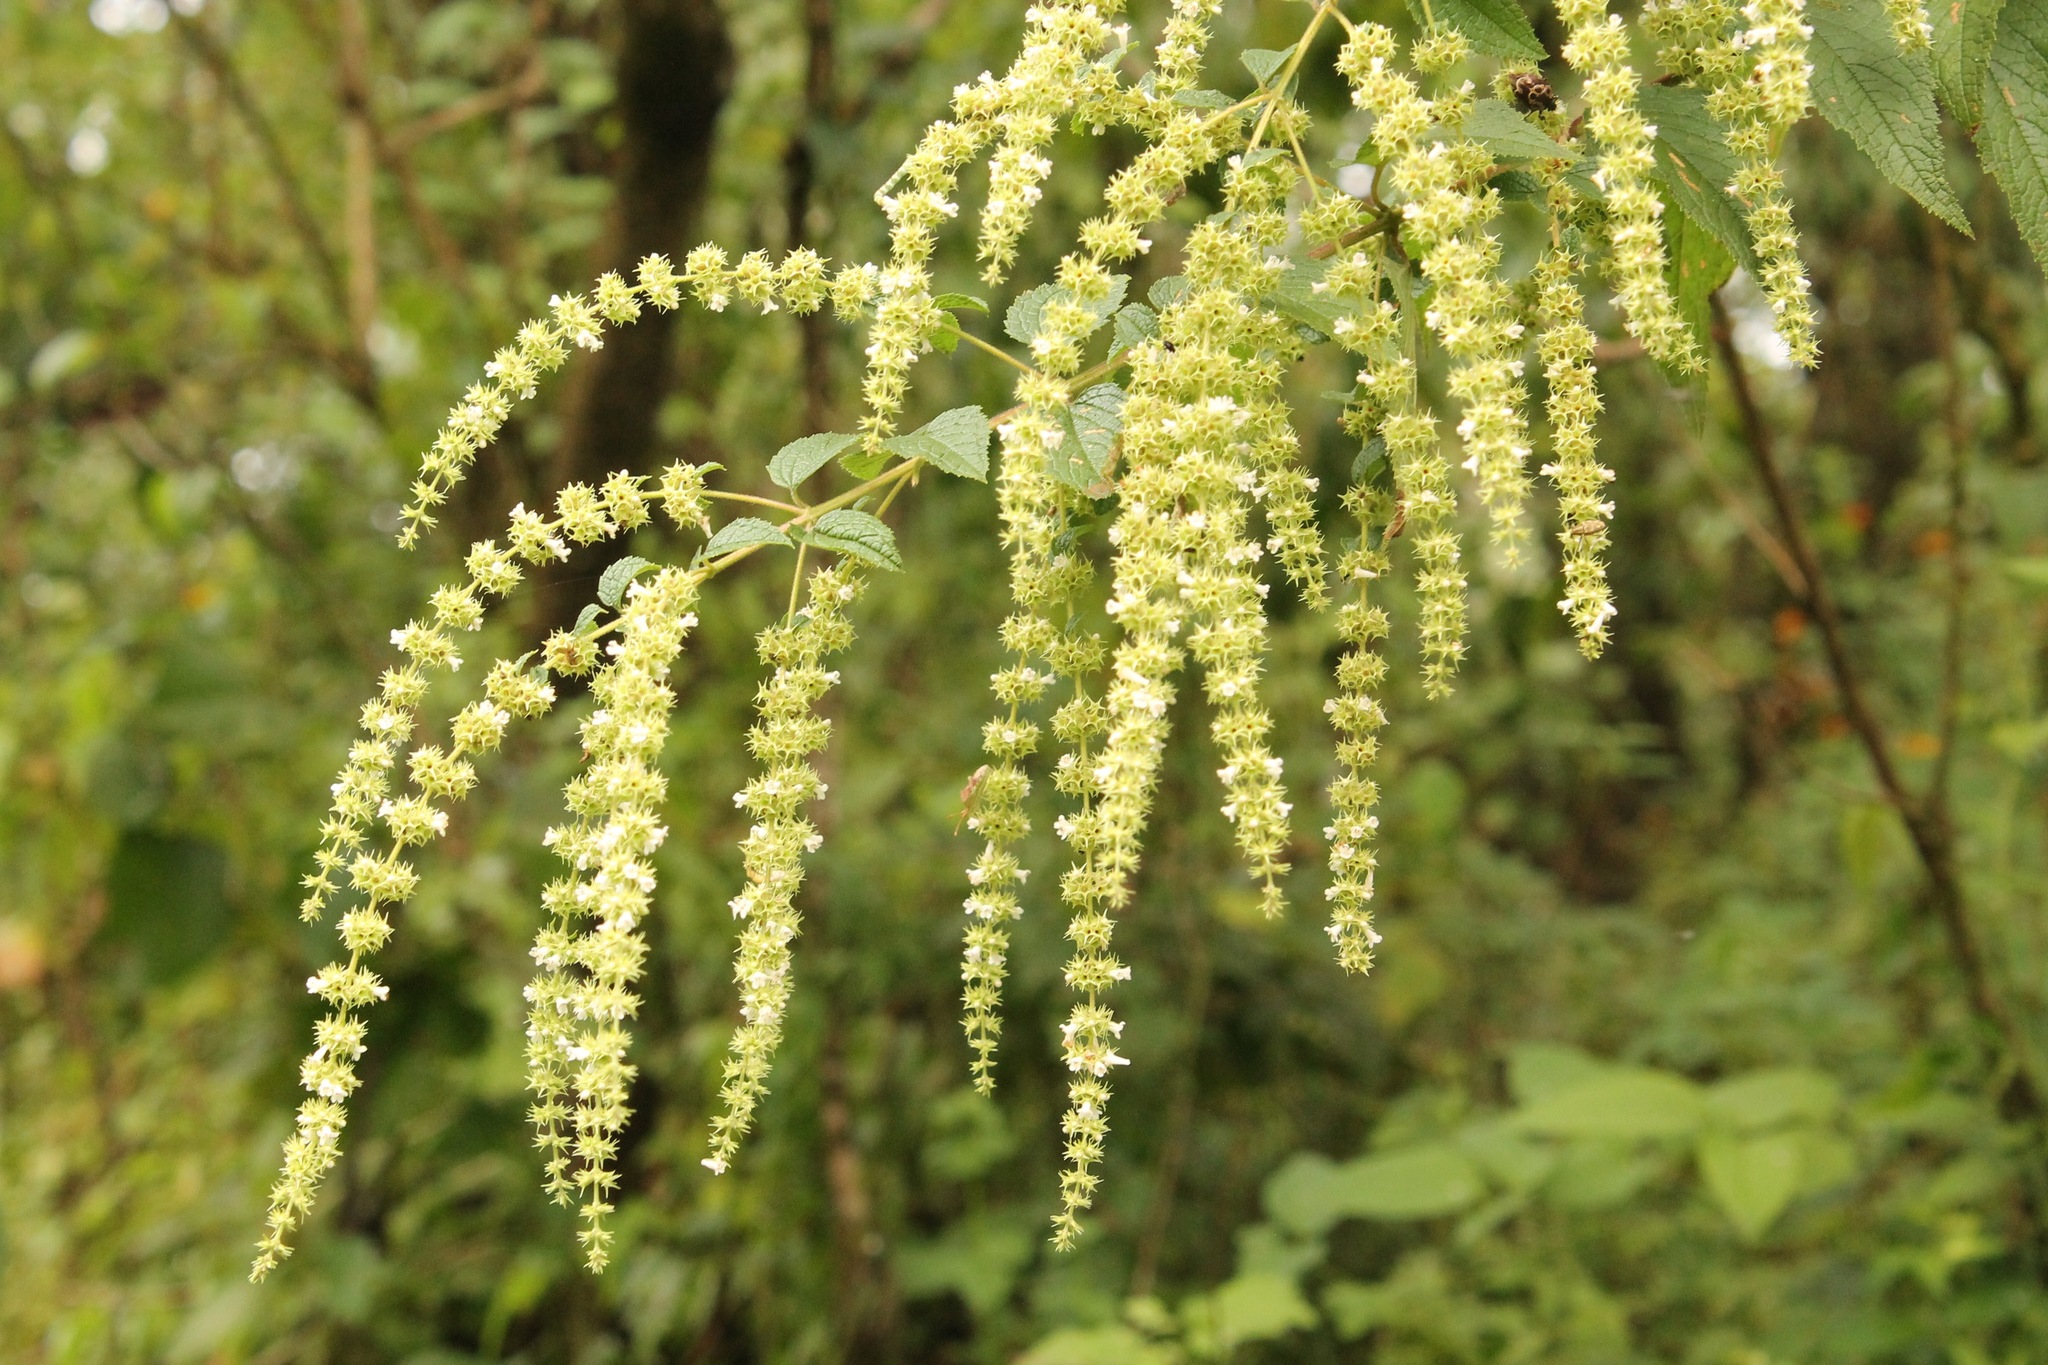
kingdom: Plantae
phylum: Tracheophyta
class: Magnoliopsida
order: Lamiales
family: Lamiaceae
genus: Asterohyptis
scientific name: Asterohyptis stellulata
